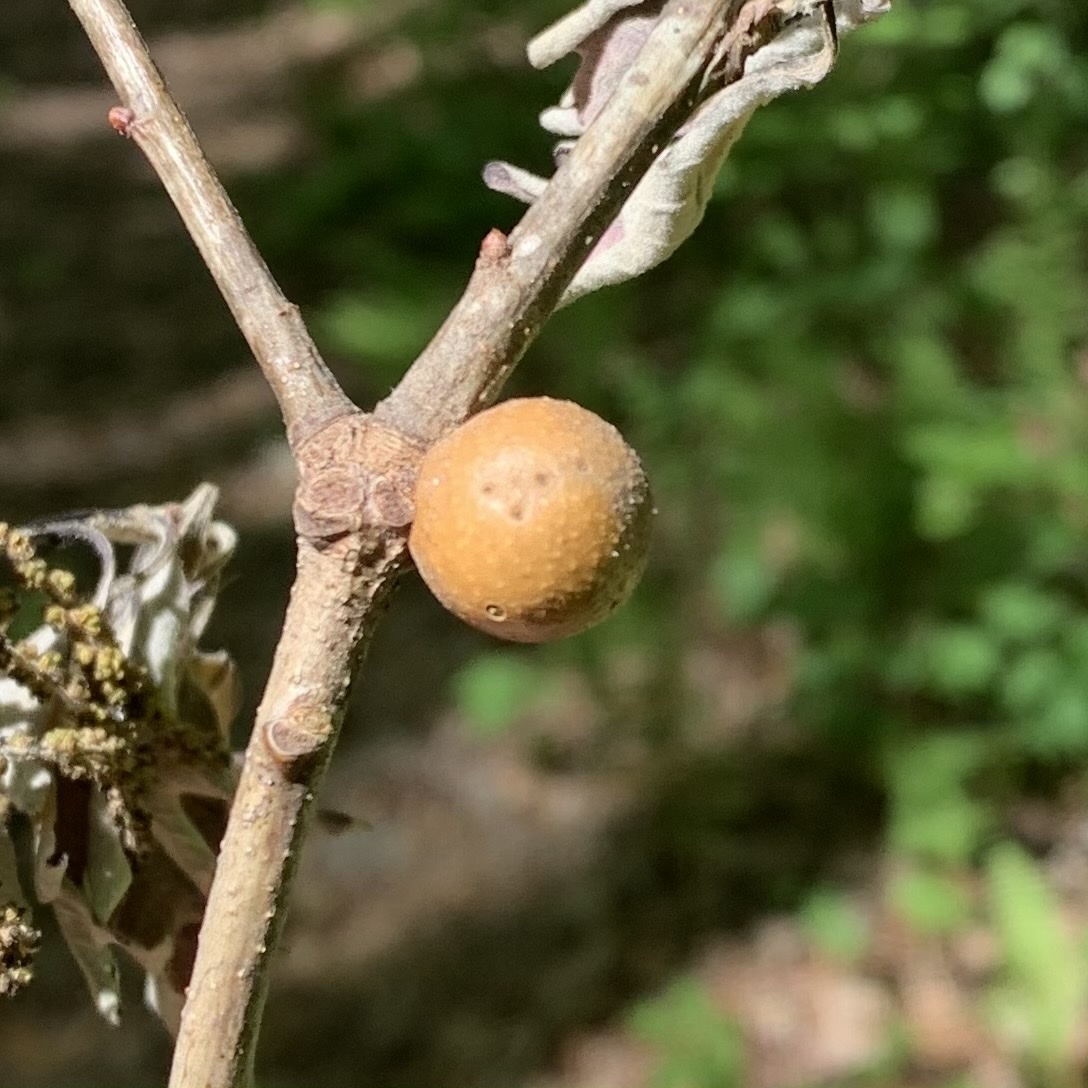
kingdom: Animalia
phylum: Arthropoda
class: Insecta
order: Hymenoptera
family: Cynipidae
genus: Disholcaspis
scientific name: Disholcaspis quercusglobulus
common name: Round bullet gall wasp
